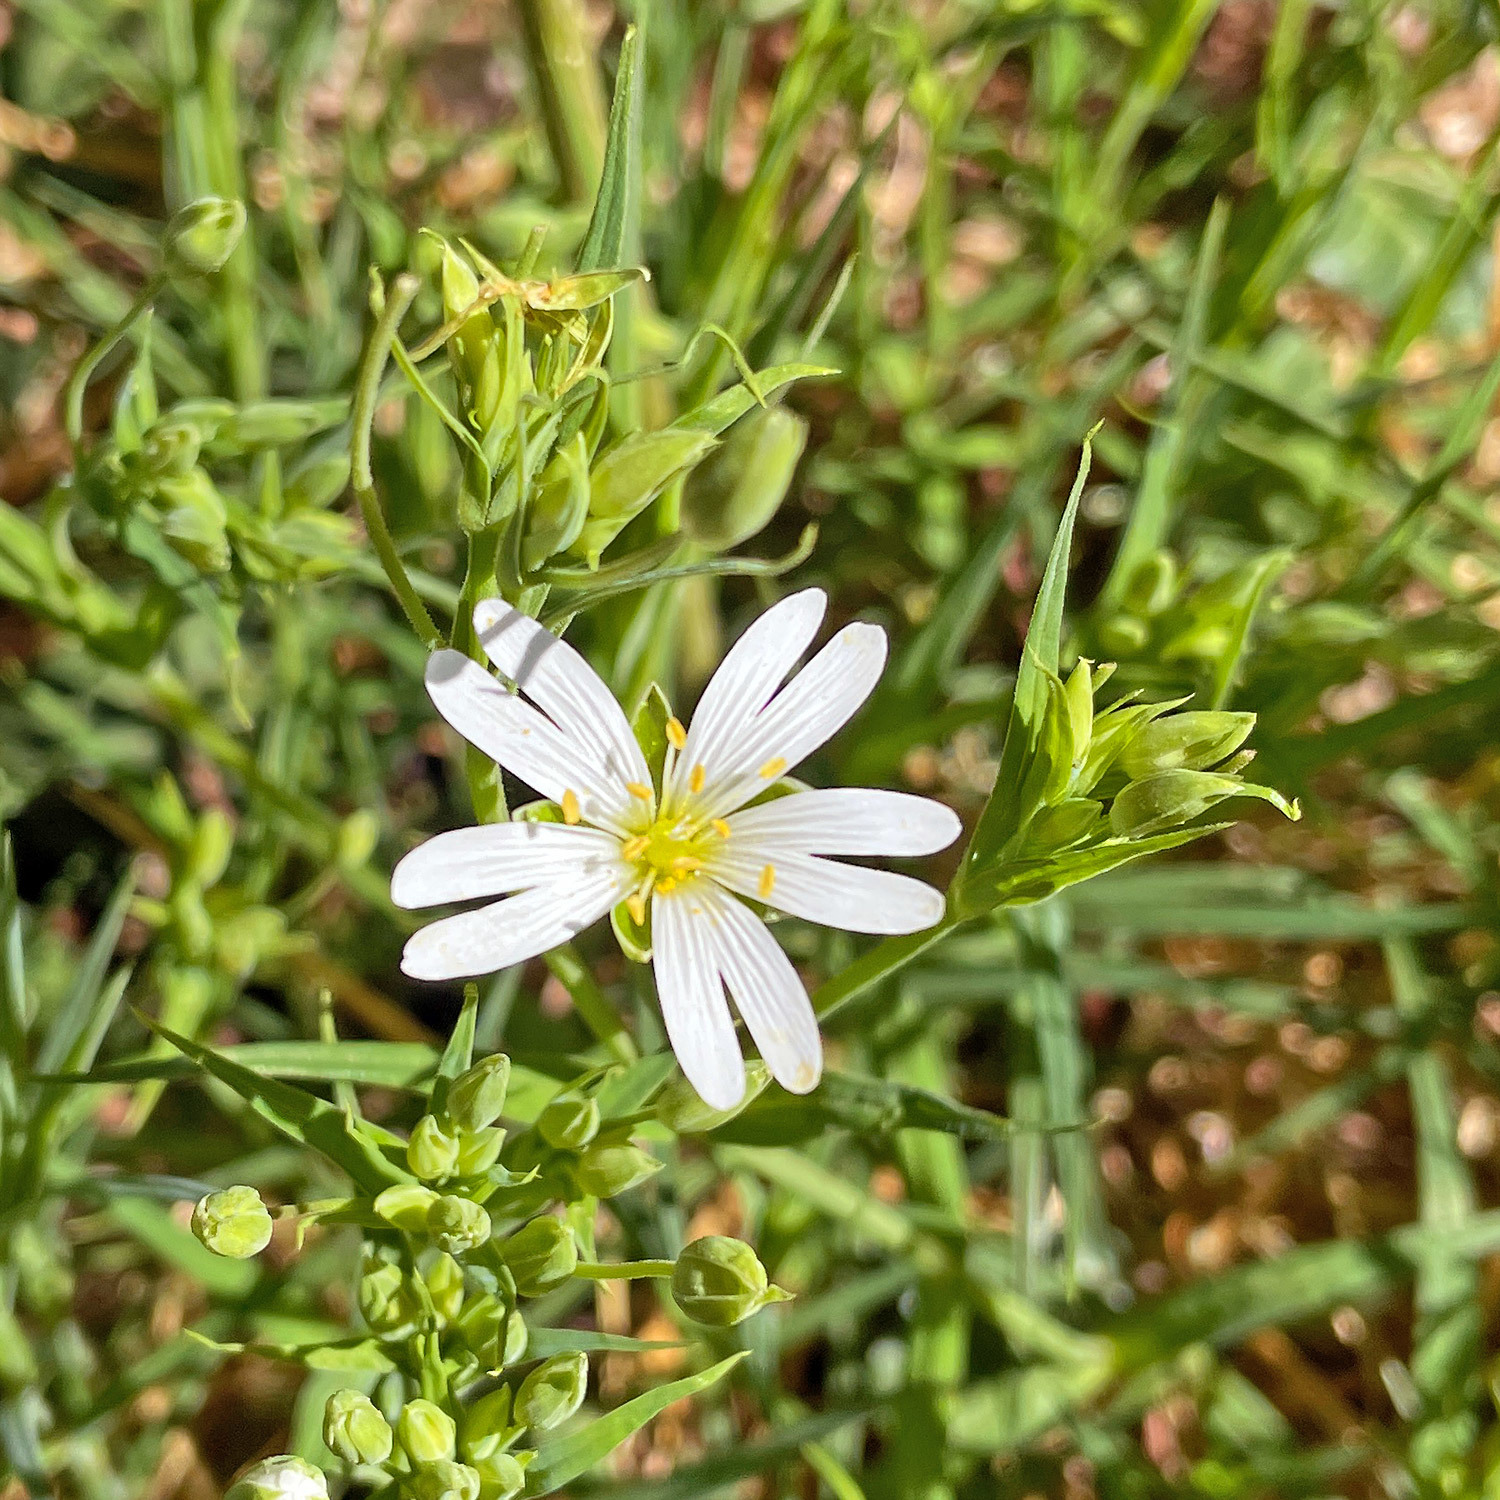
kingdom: Plantae
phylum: Tracheophyta
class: Magnoliopsida
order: Caryophyllales
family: Caryophyllaceae
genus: Rabelera
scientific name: Rabelera holostea
